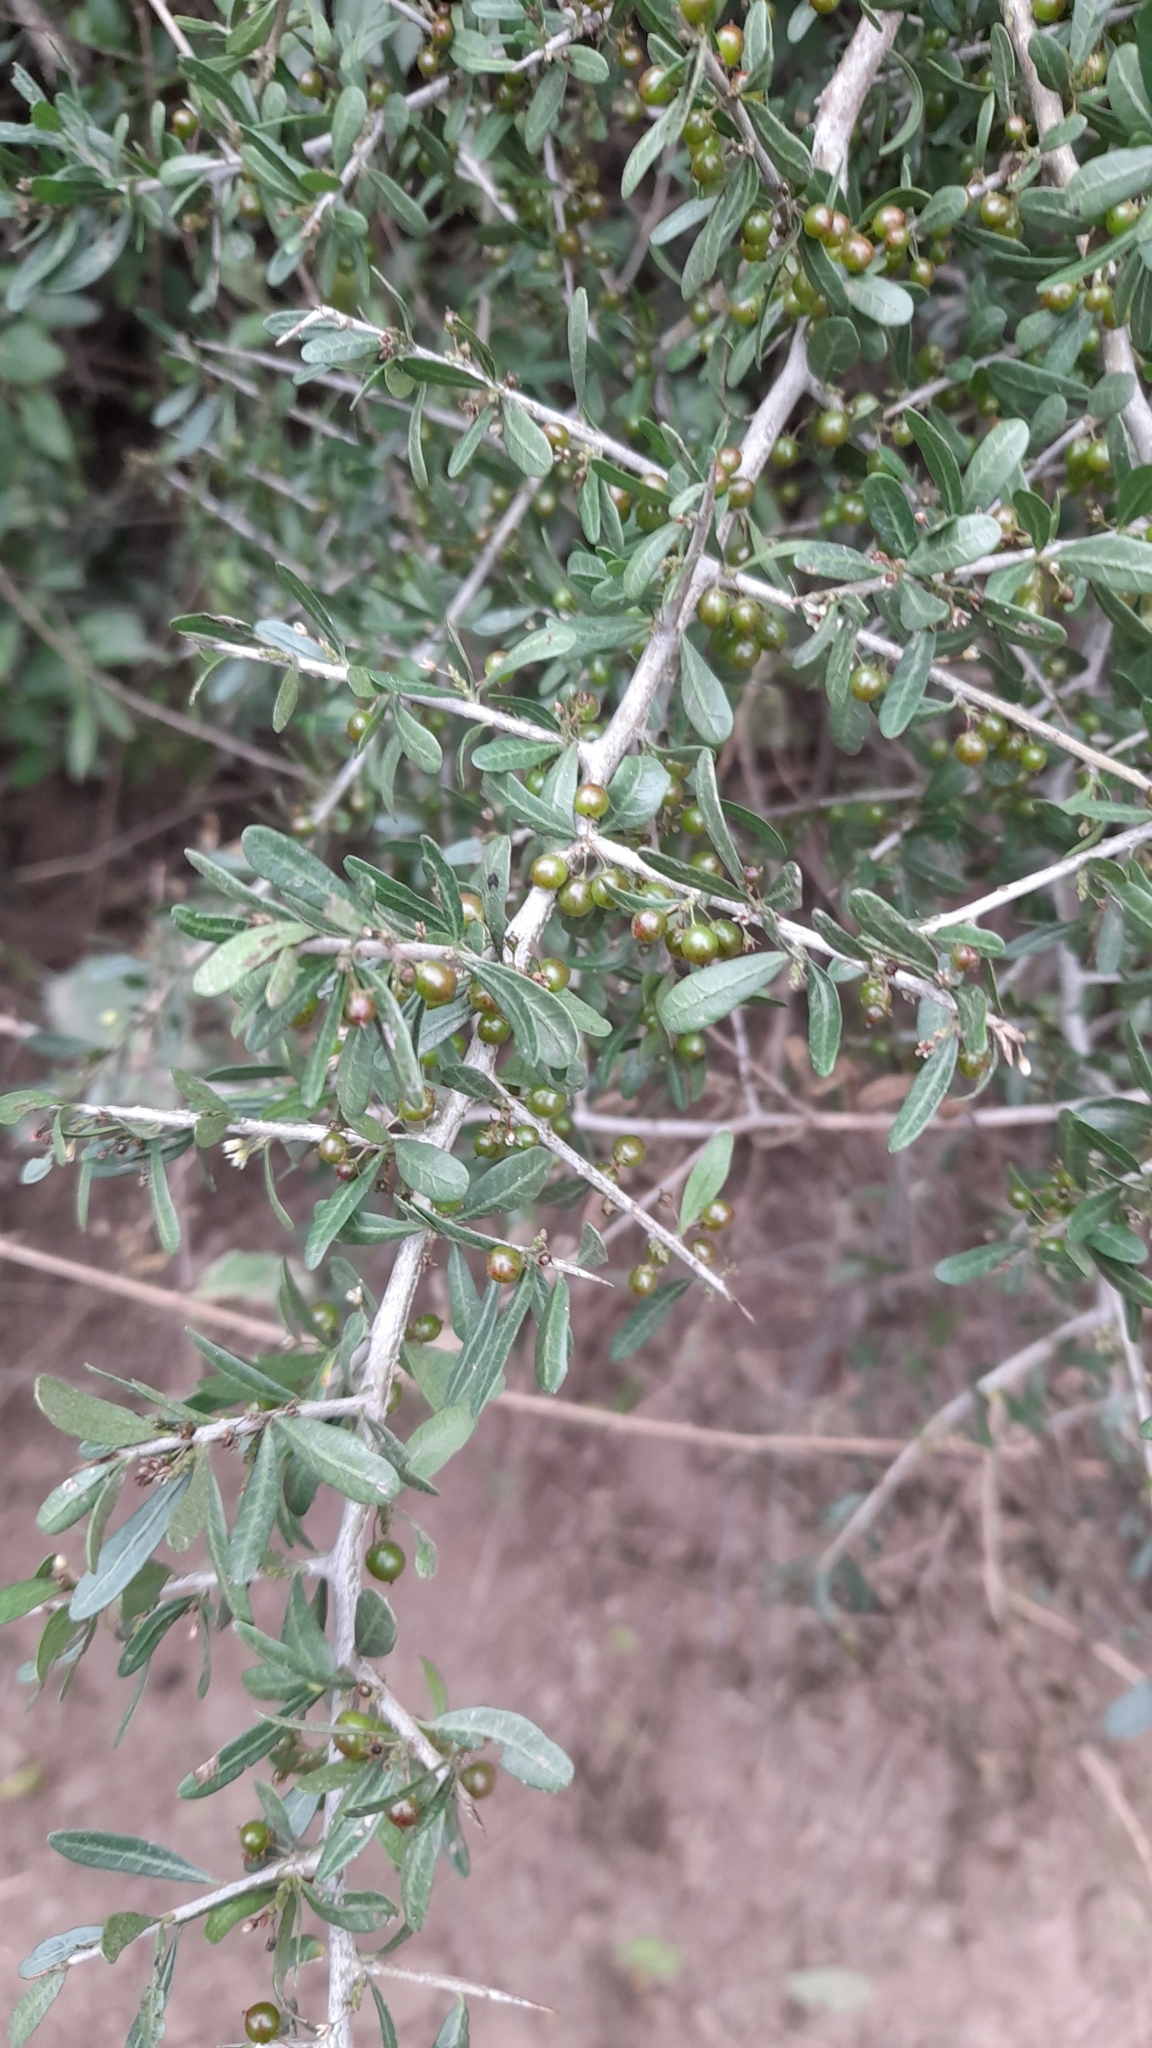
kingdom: Plantae
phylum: Tracheophyta
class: Magnoliopsida
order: Sapindales
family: Anacardiaceae
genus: Schinus
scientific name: Schinus fasciculata
